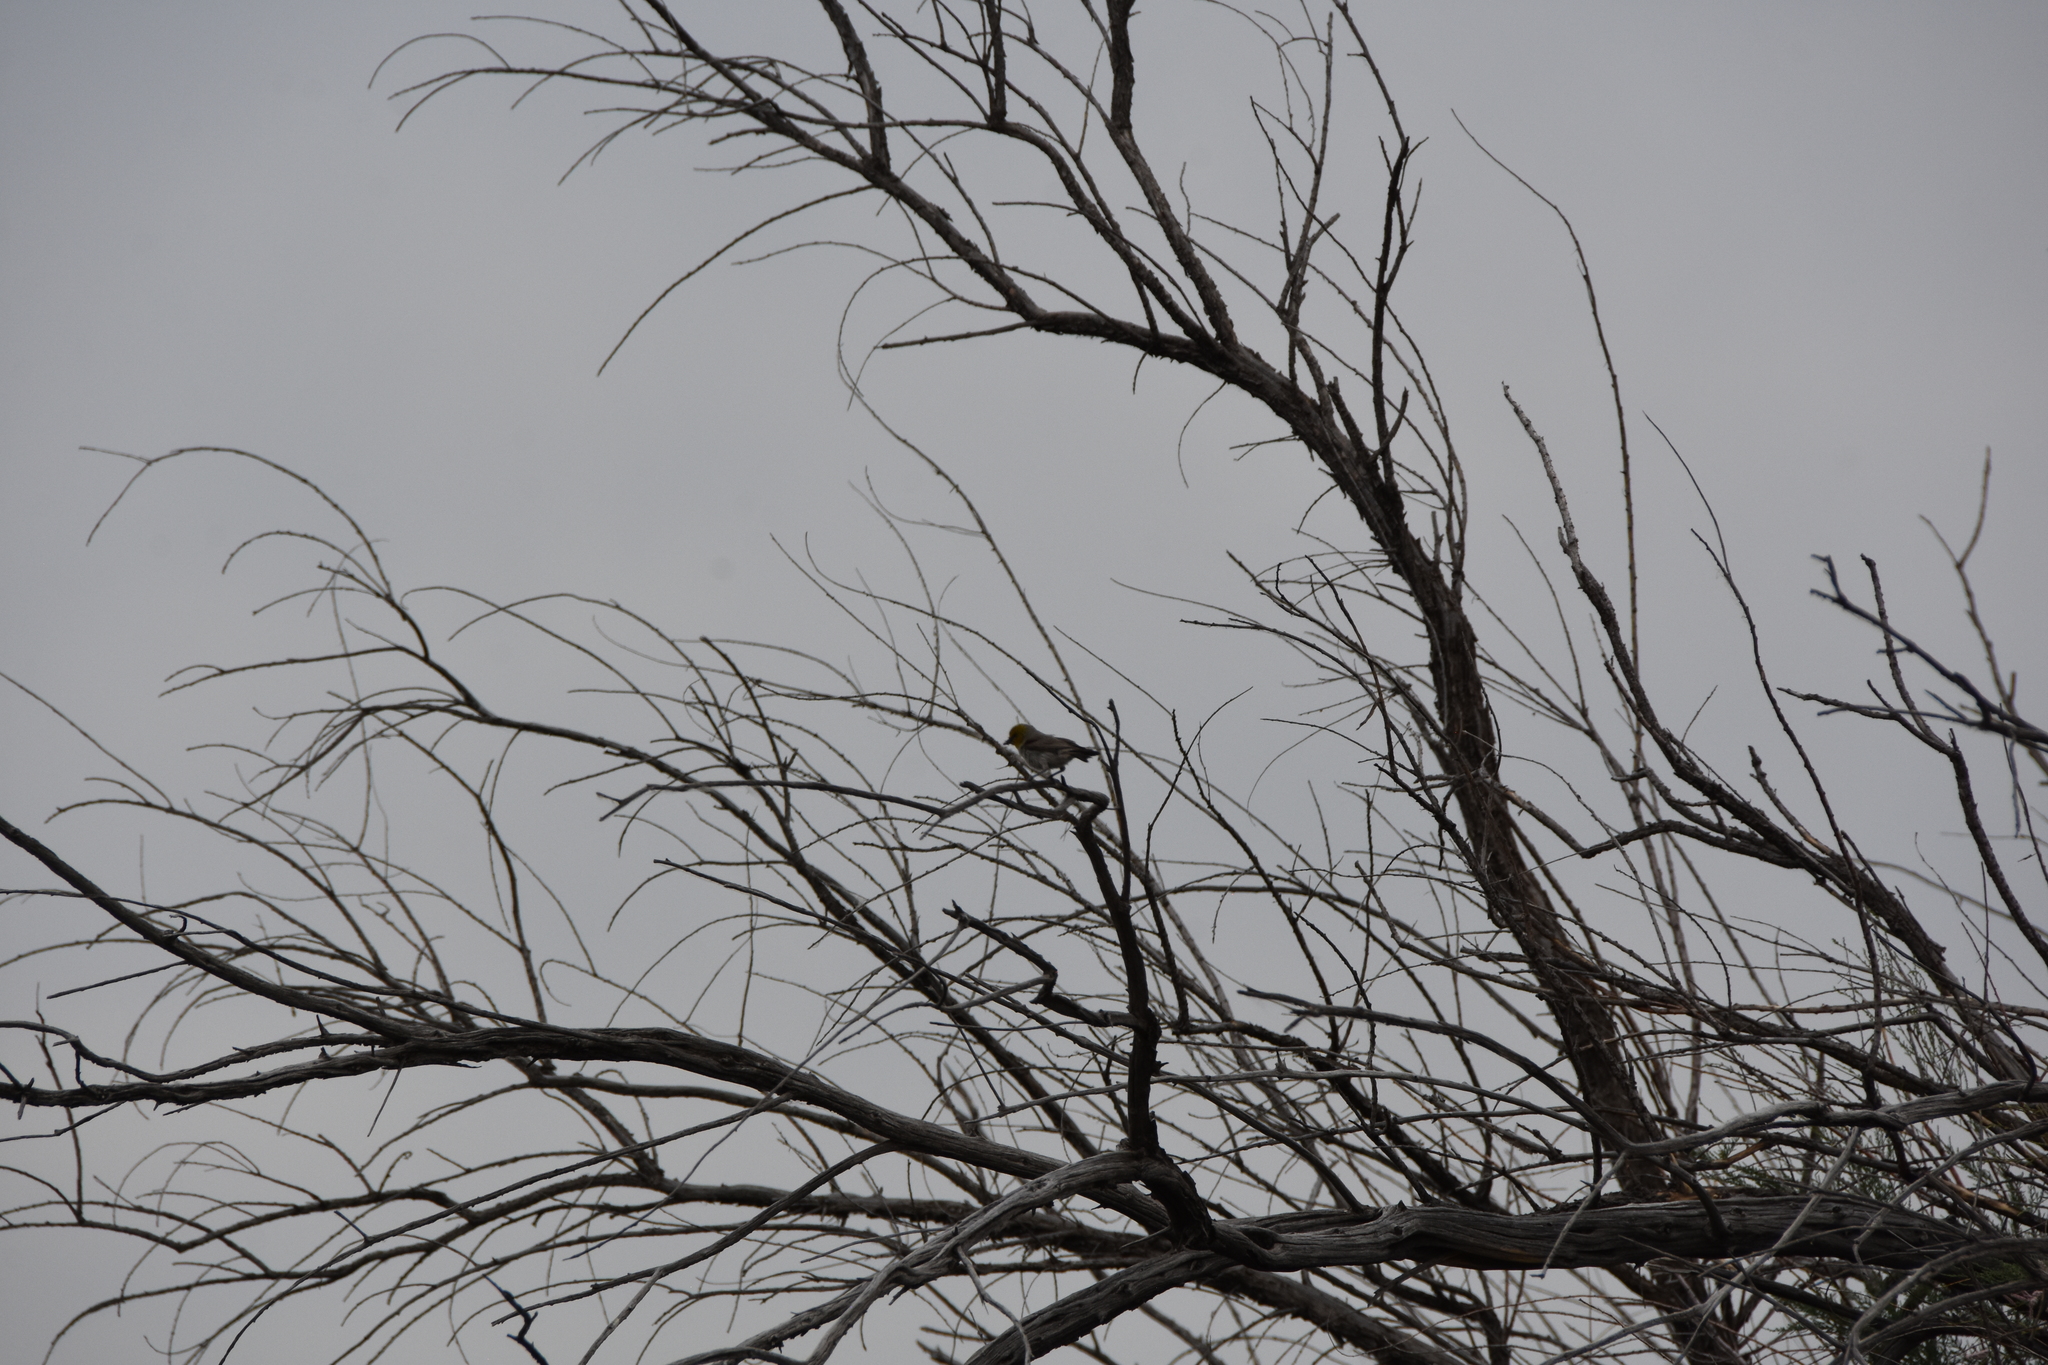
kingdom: Animalia
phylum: Chordata
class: Aves
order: Passeriformes
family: Remizidae
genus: Auriparus
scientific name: Auriparus flaviceps
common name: Verdin
